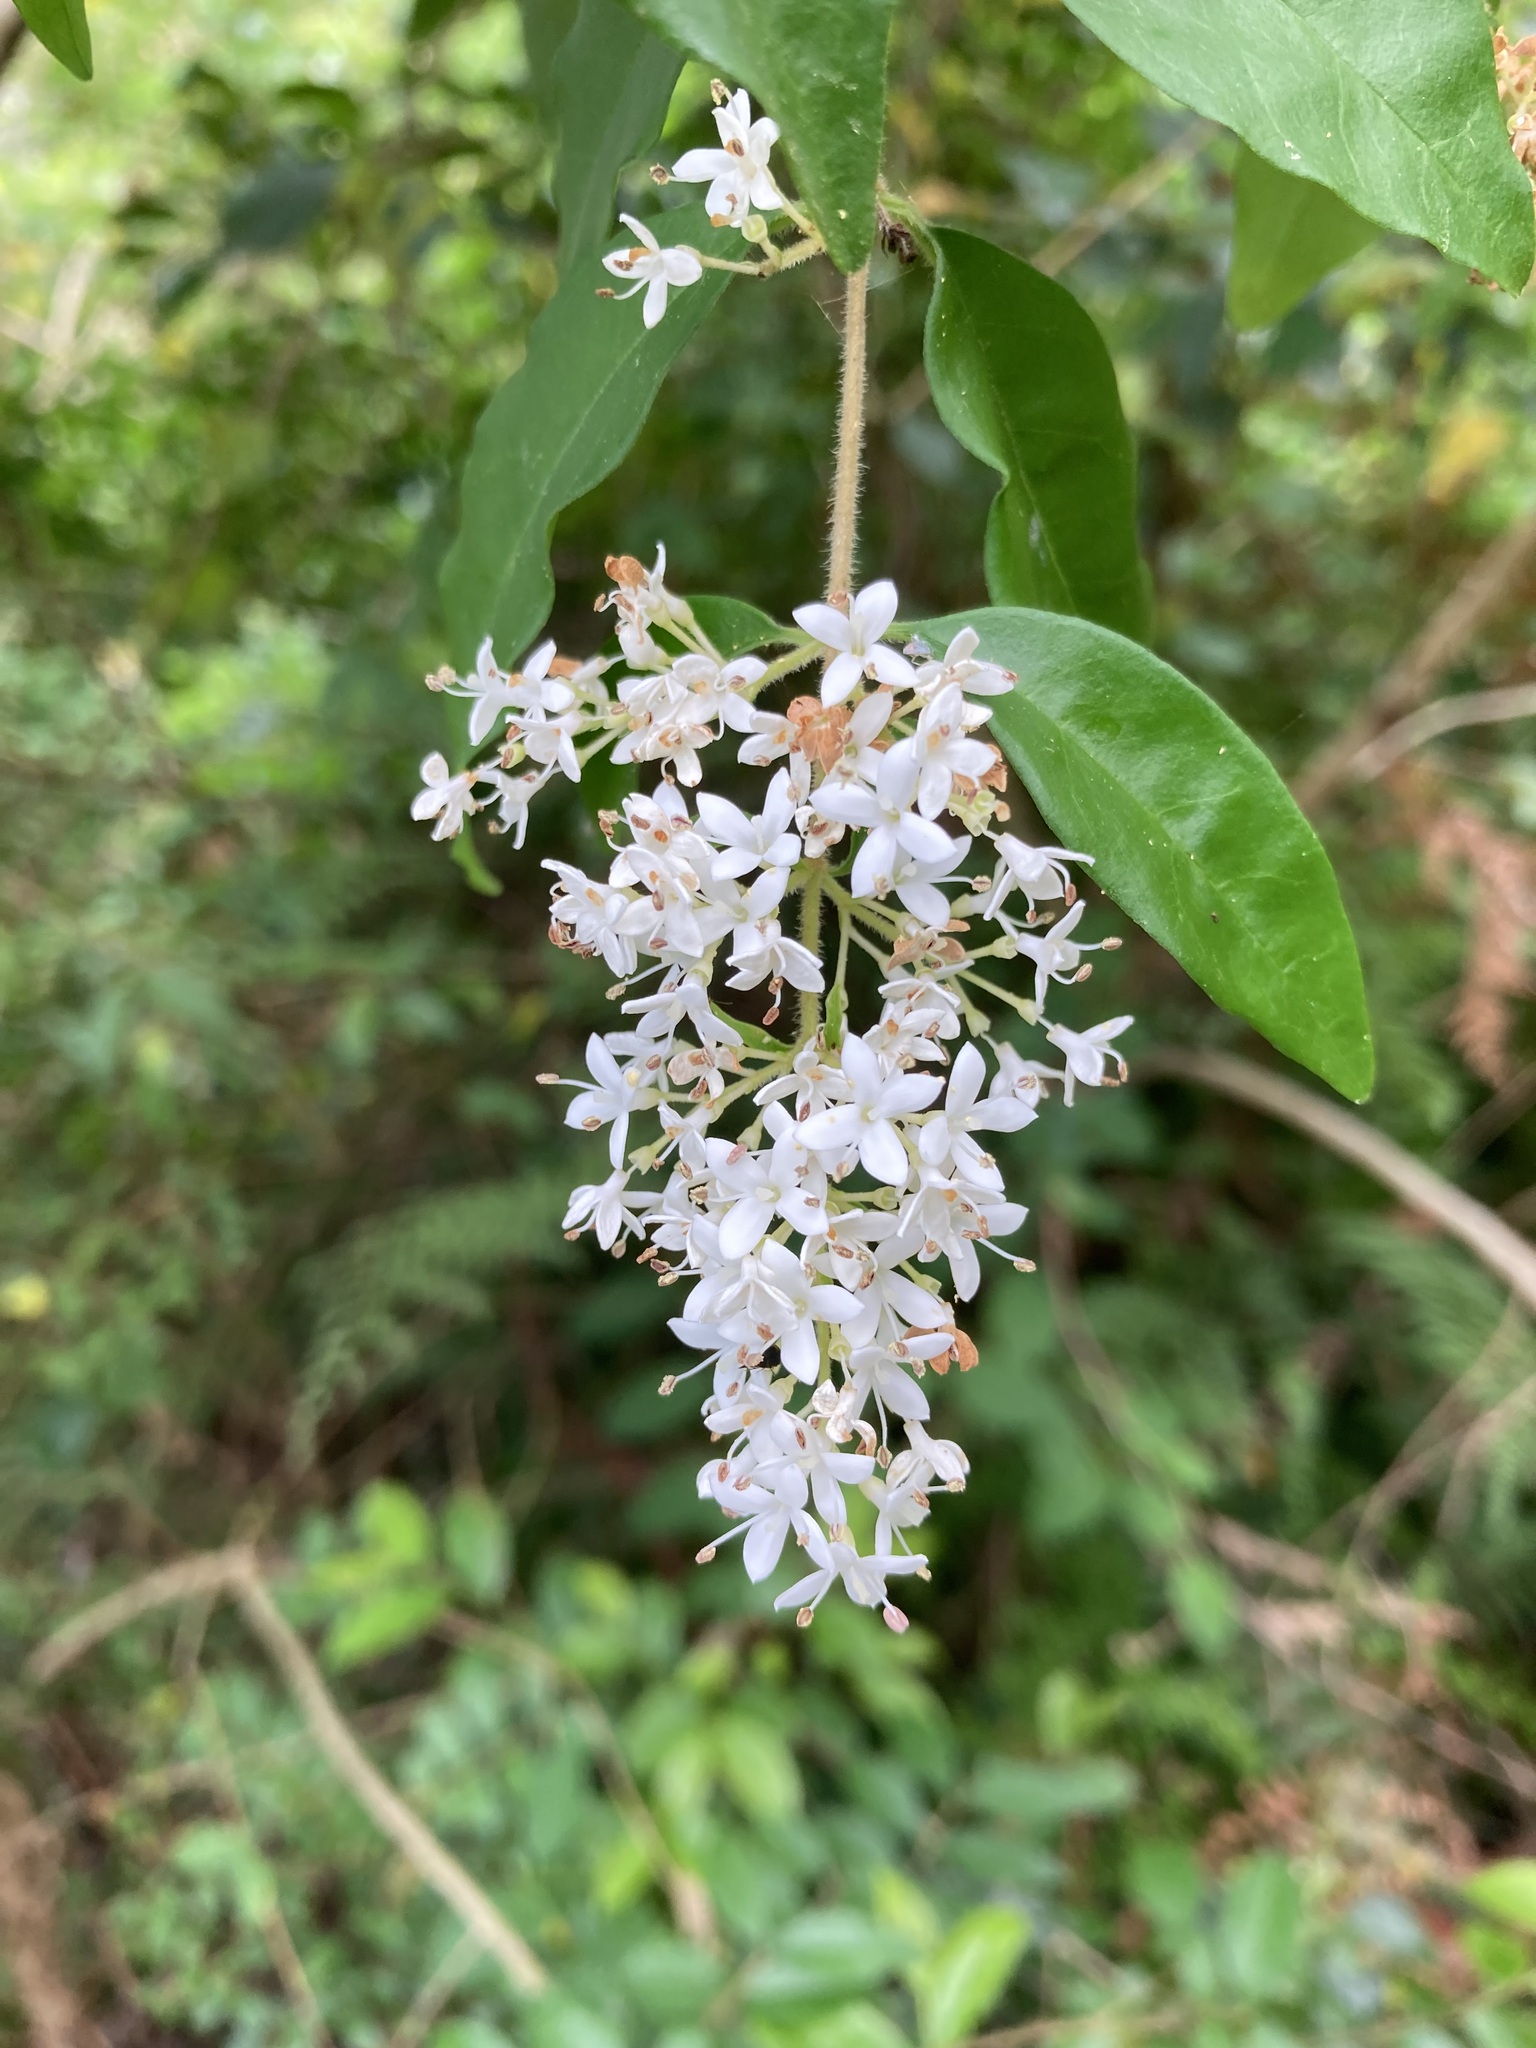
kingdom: Plantae
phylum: Tracheophyta
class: Magnoliopsida
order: Lamiales
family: Oleaceae
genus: Ligustrum
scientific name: Ligustrum sinense
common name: Chinese privet
